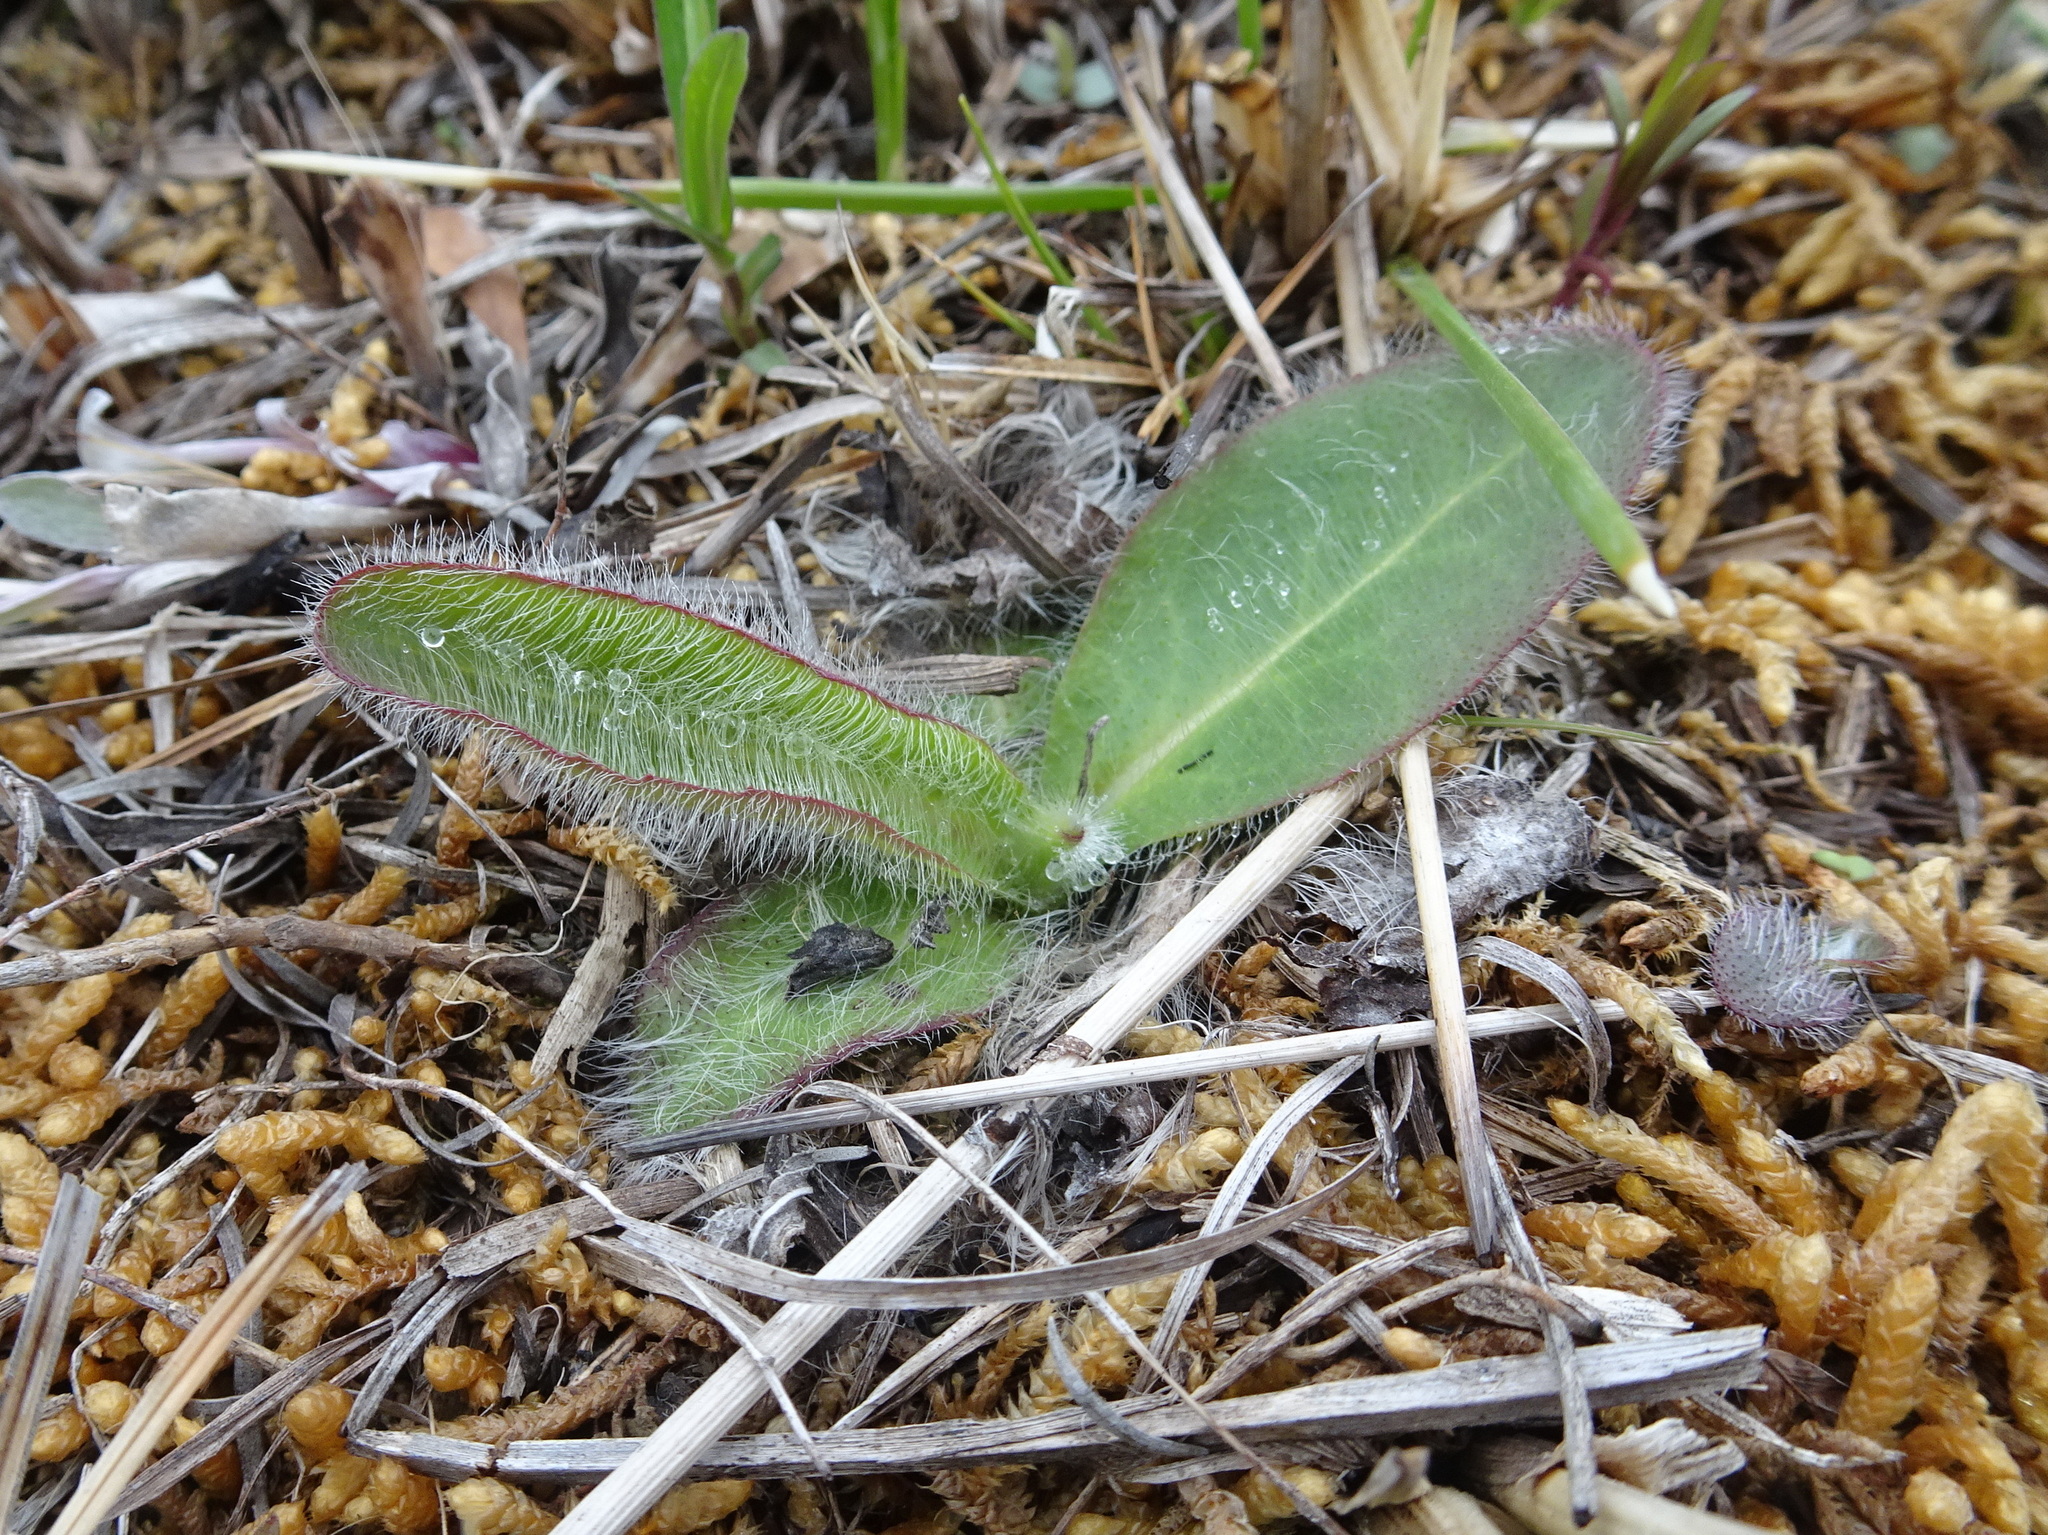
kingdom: Plantae
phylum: Tracheophyta
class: Magnoliopsida
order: Asterales
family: Asteraceae
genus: Hieracium
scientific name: Hieracium longipilum
